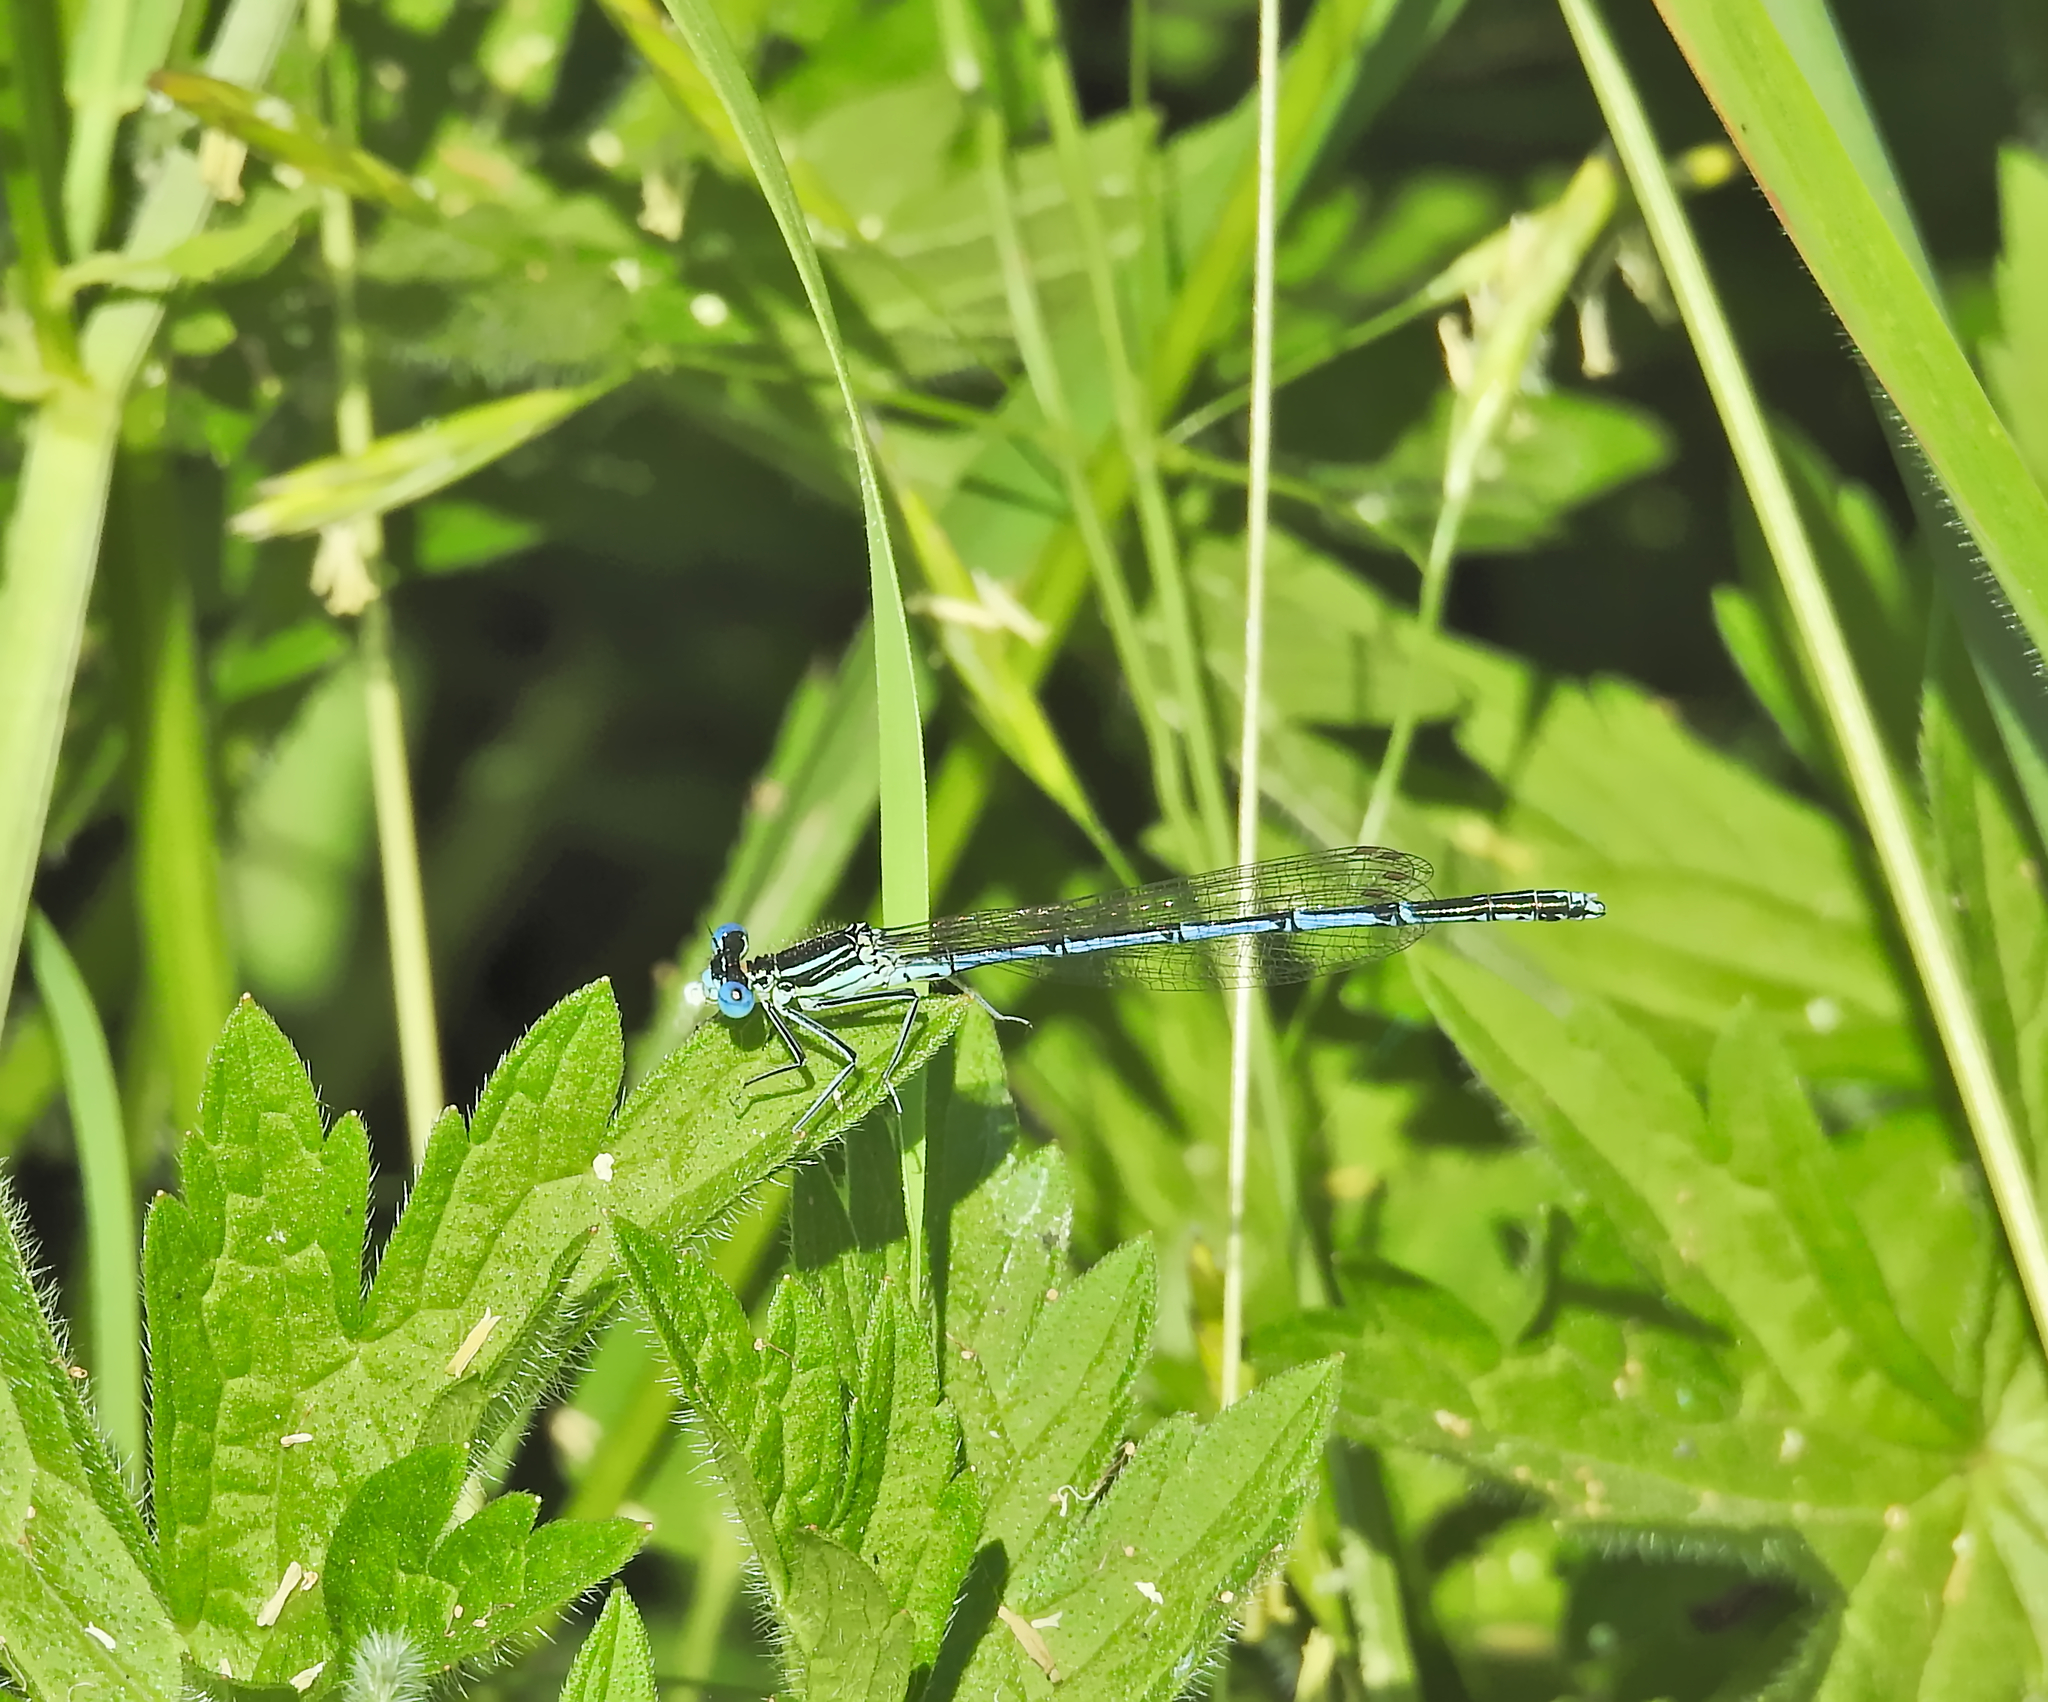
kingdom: Animalia
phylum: Arthropoda
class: Insecta
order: Odonata
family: Platycnemididae
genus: Platycnemis
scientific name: Platycnemis pennipes
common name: White-legged damselfly
